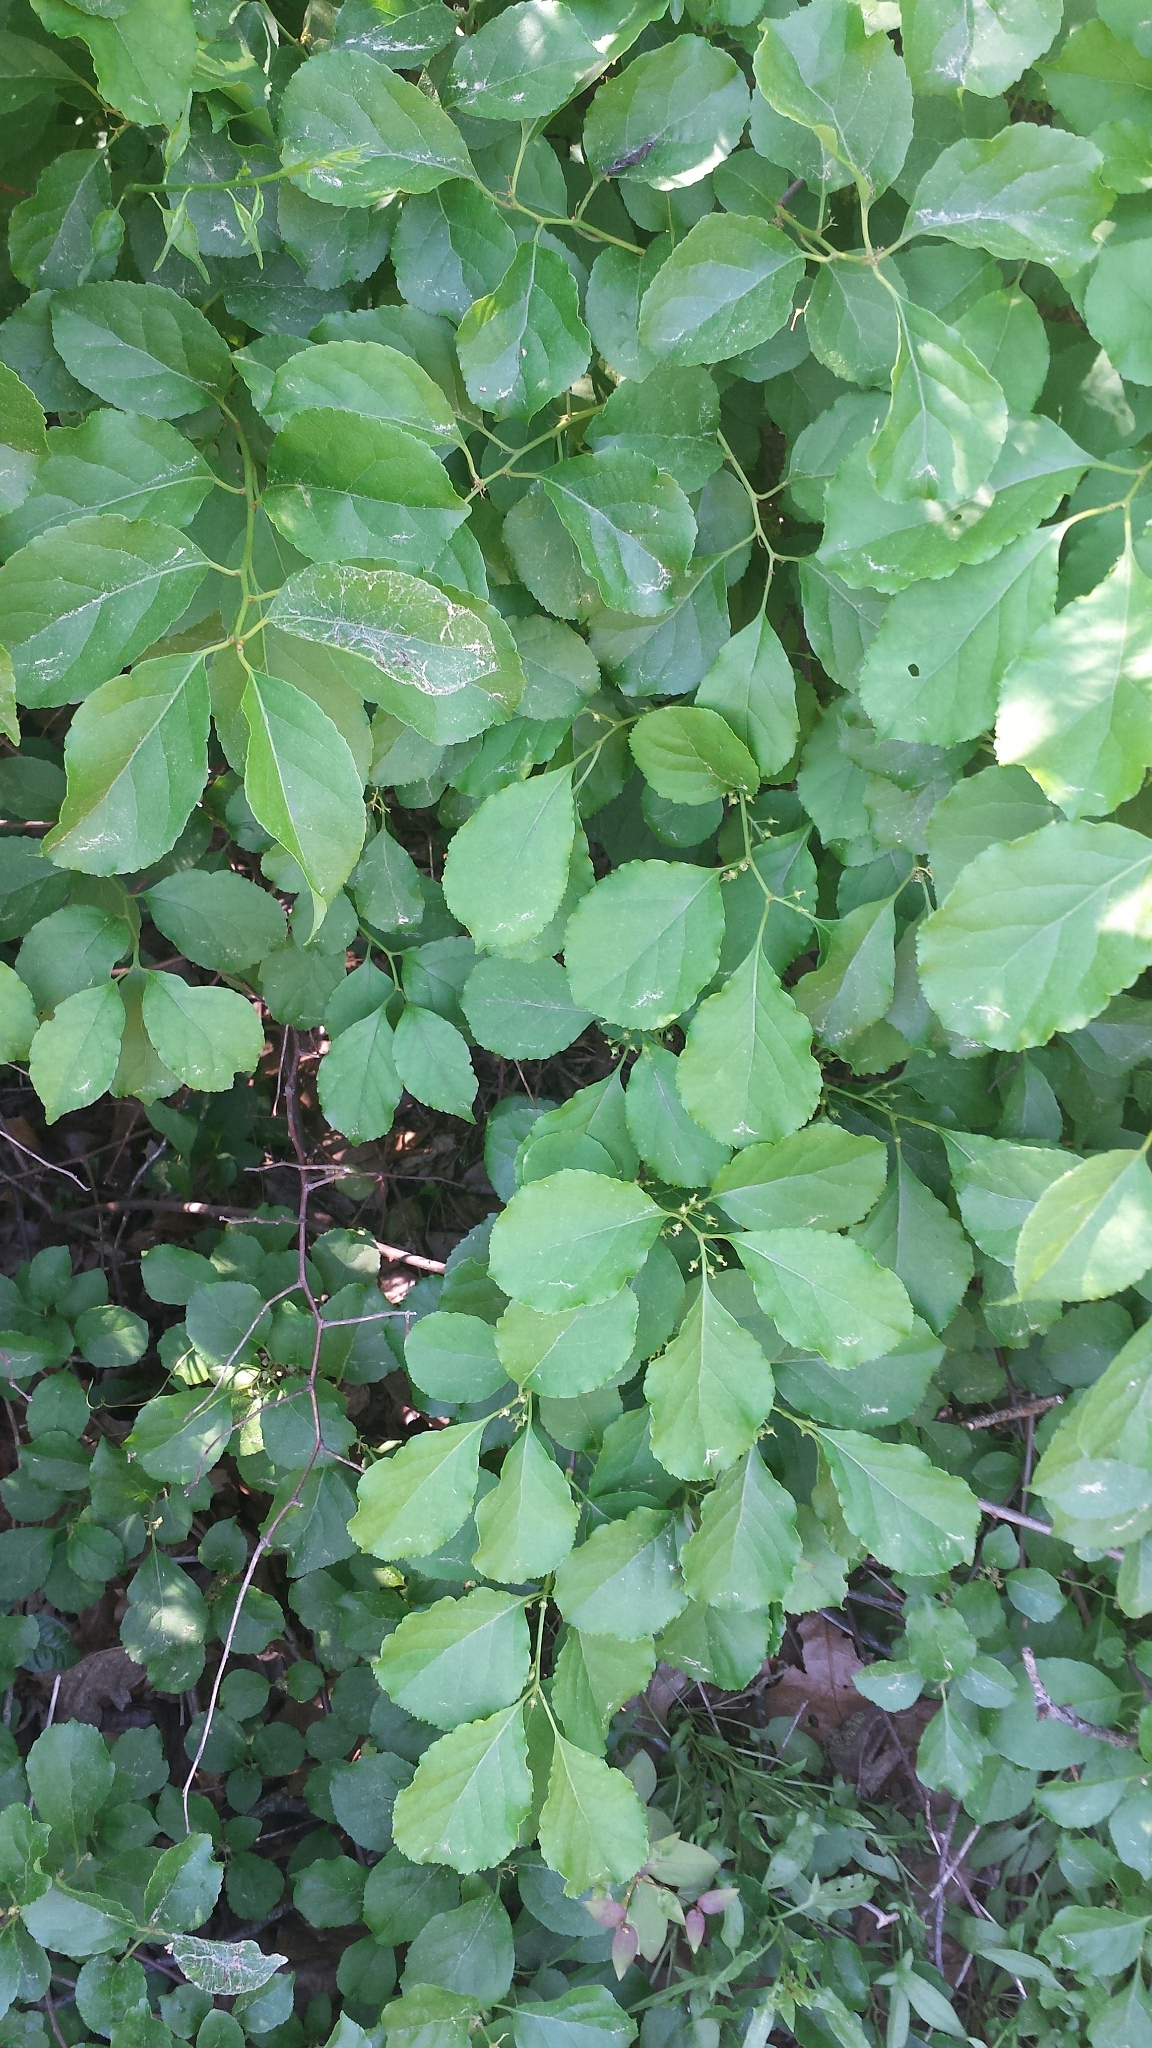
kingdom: Plantae
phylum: Tracheophyta
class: Magnoliopsida
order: Celastrales
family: Celastraceae
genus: Celastrus
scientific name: Celastrus orbiculatus
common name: Oriental bittersweet
